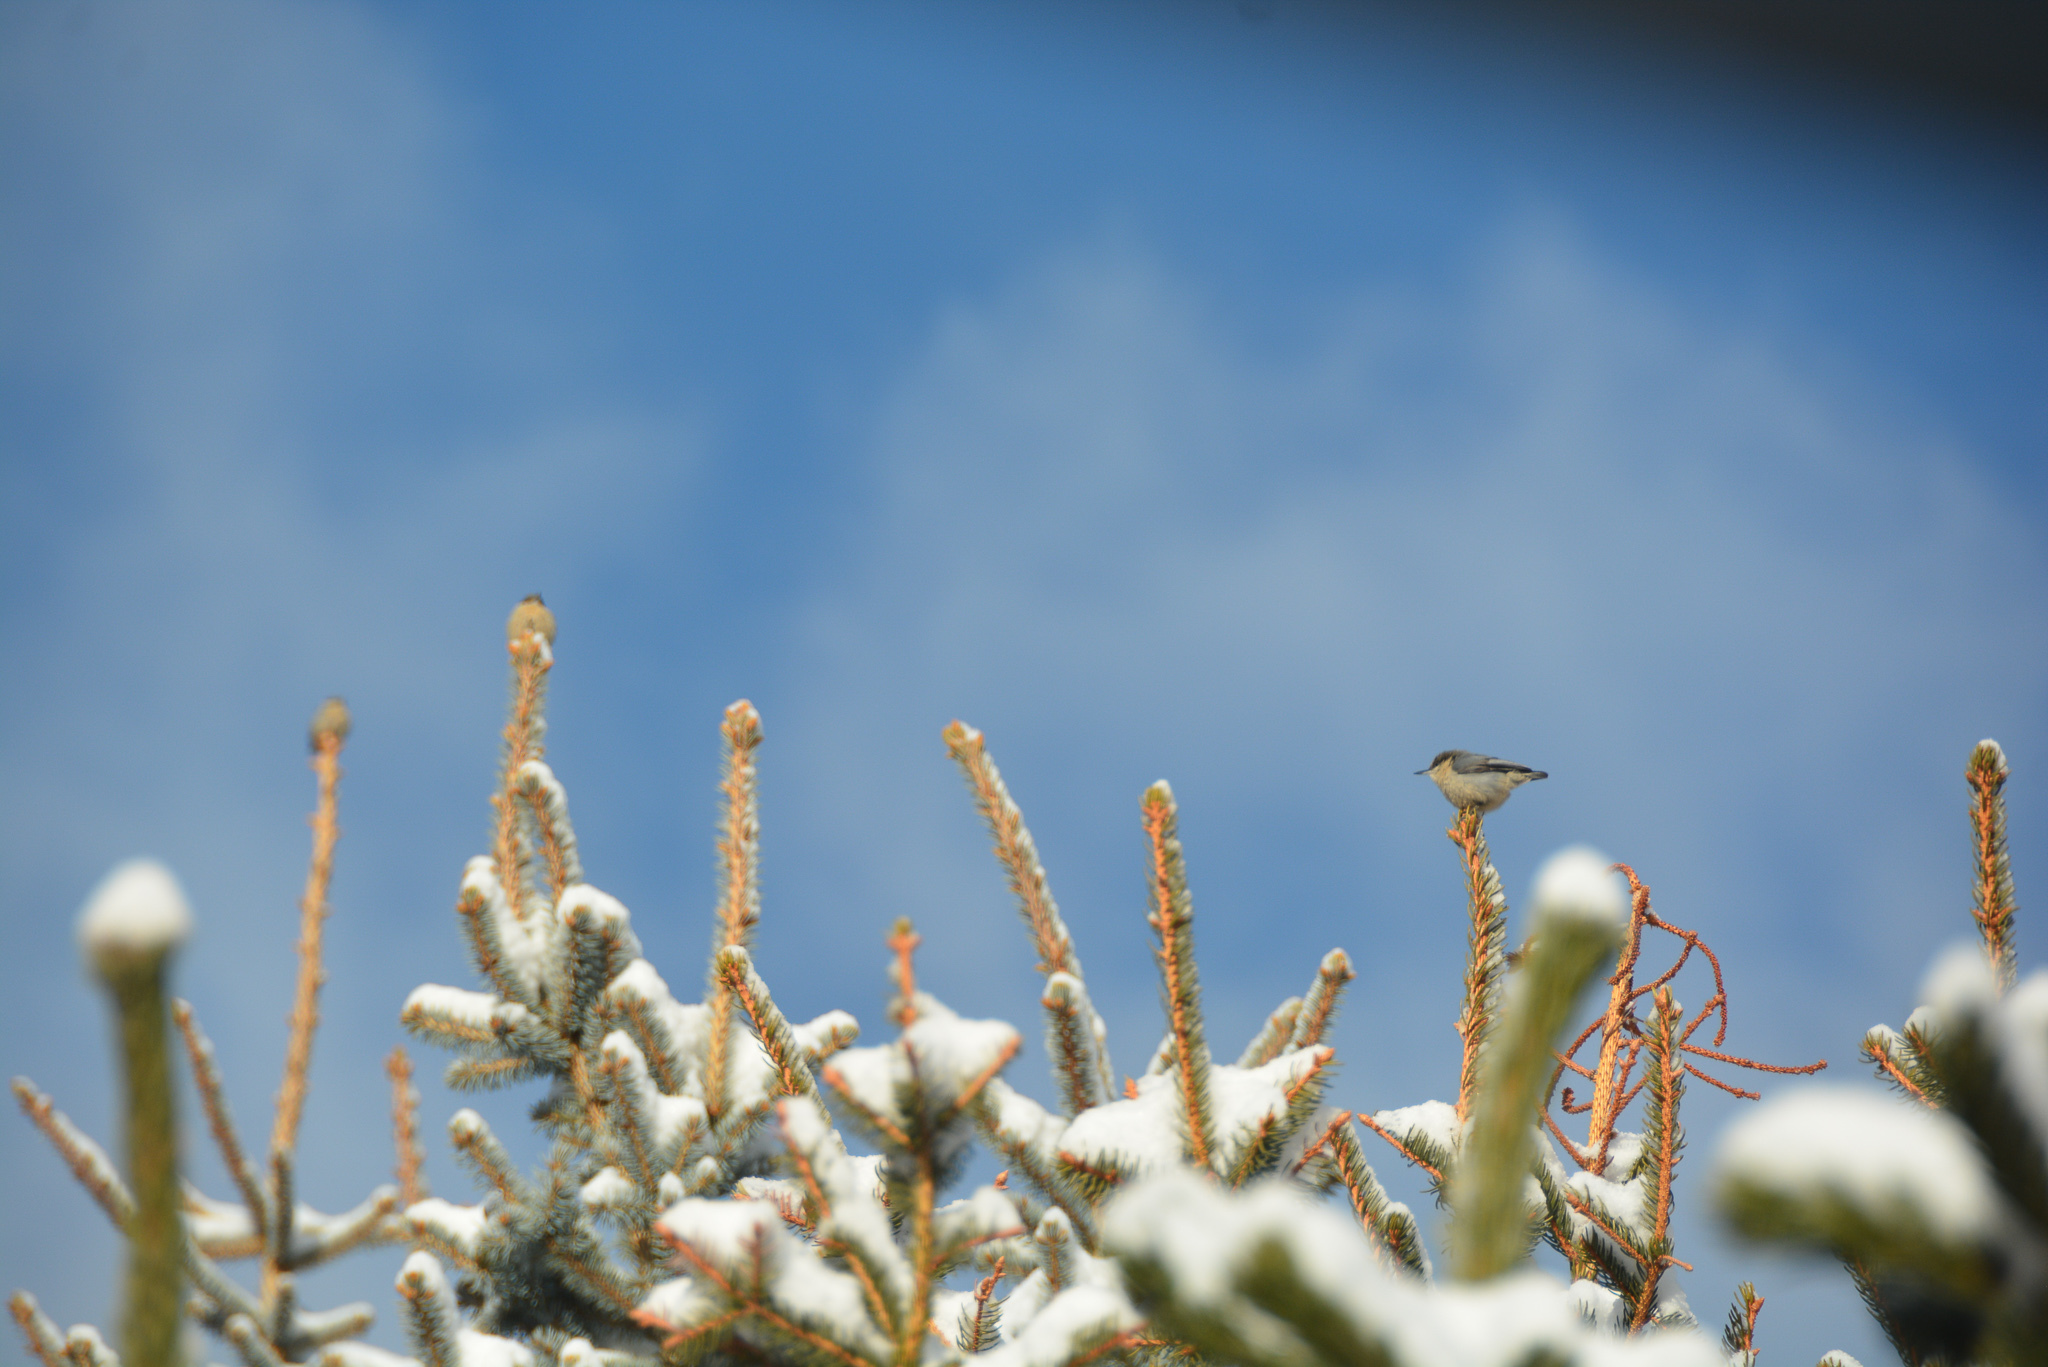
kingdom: Animalia
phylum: Chordata
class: Aves
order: Passeriformes
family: Sittidae
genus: Sitta
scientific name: Sitta pygmaea
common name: Pygmy nuthatch
